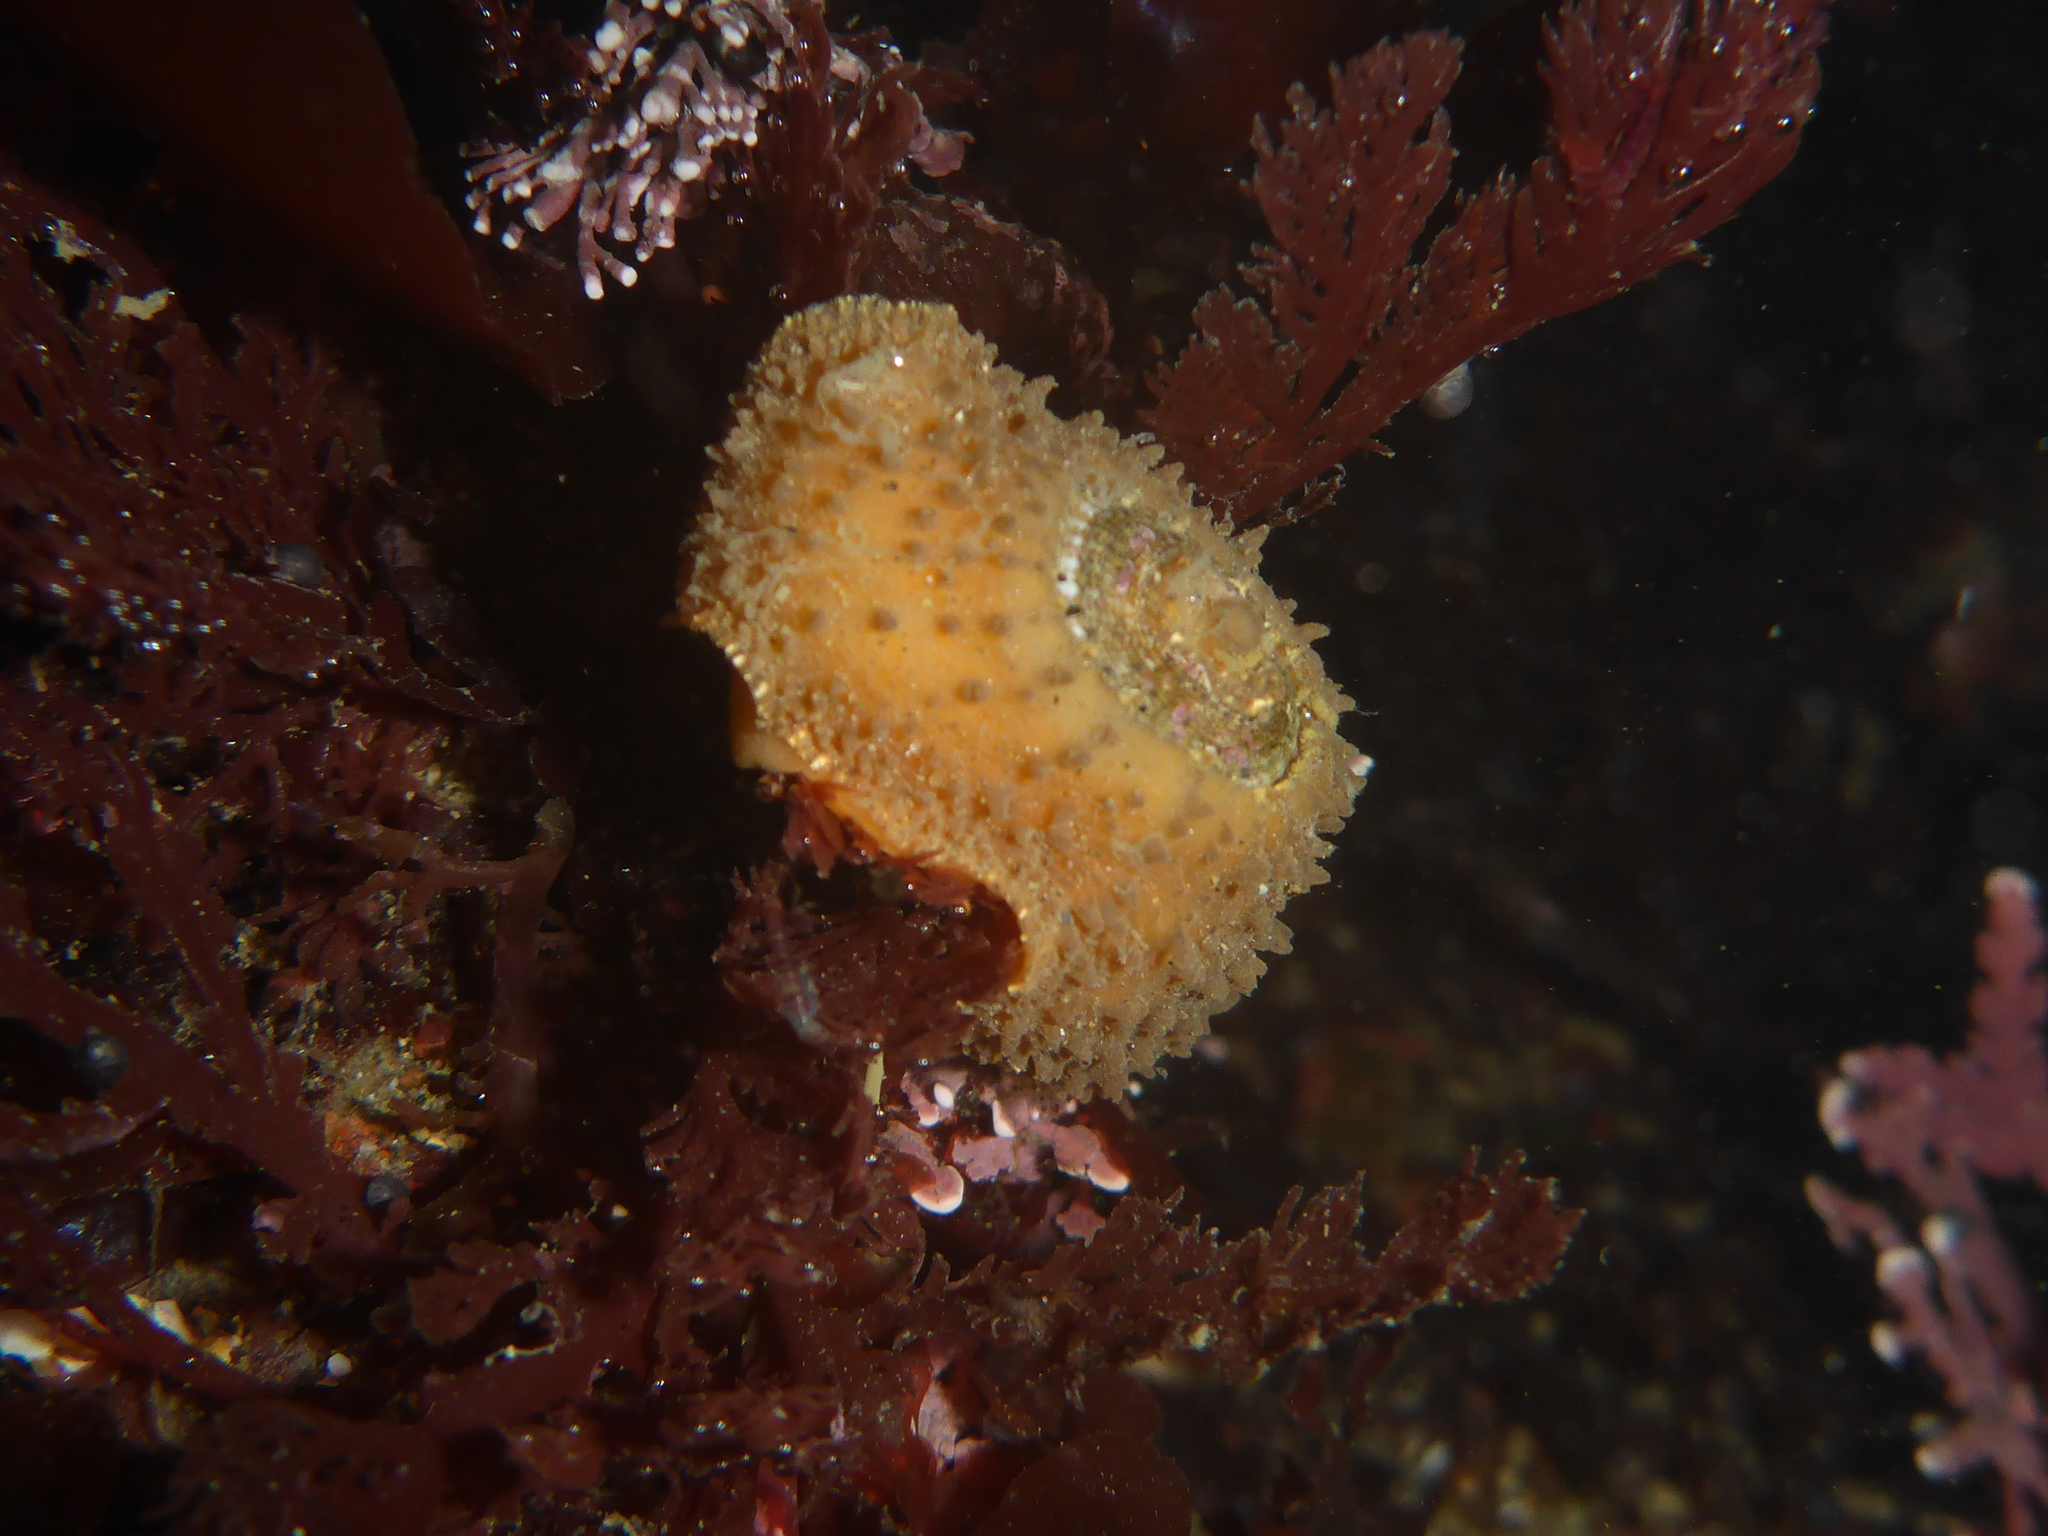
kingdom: Animalia
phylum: Mollusca
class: Gastropoda
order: Lepetellida
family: Fissurellidae
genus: Fissurellidea
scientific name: Fissurellidea bimaculata
